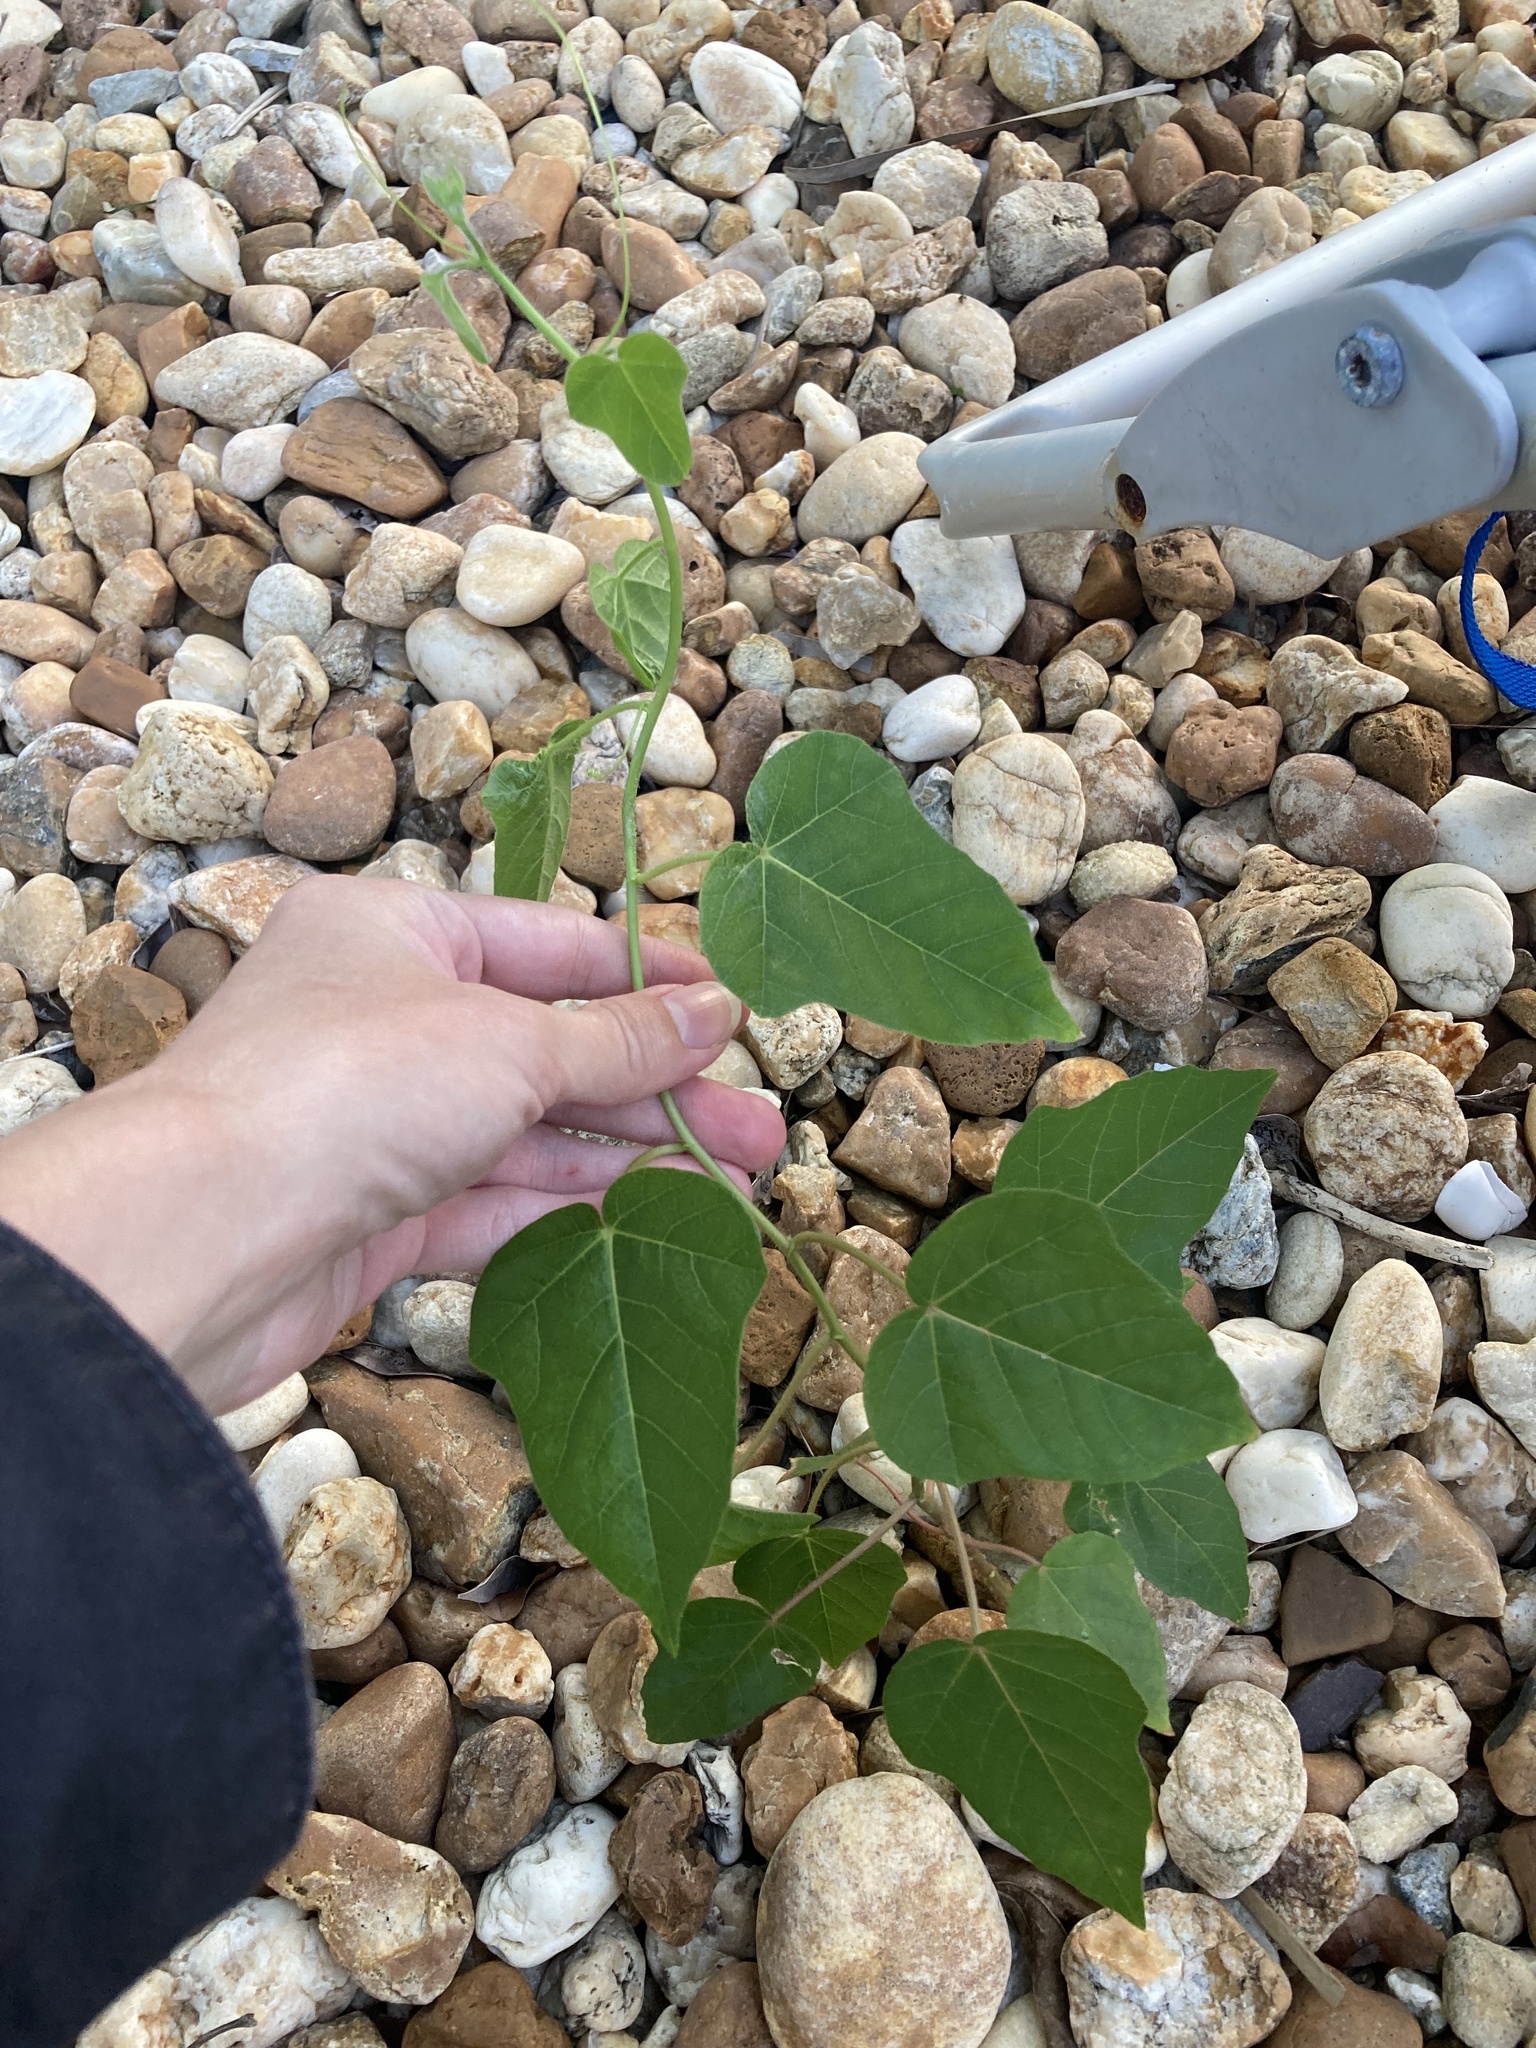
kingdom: Plantae
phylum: Tracheophyta
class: Magnoliopsida
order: Malpighiales
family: Passifloraceae
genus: Passiflora
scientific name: Passiflora
